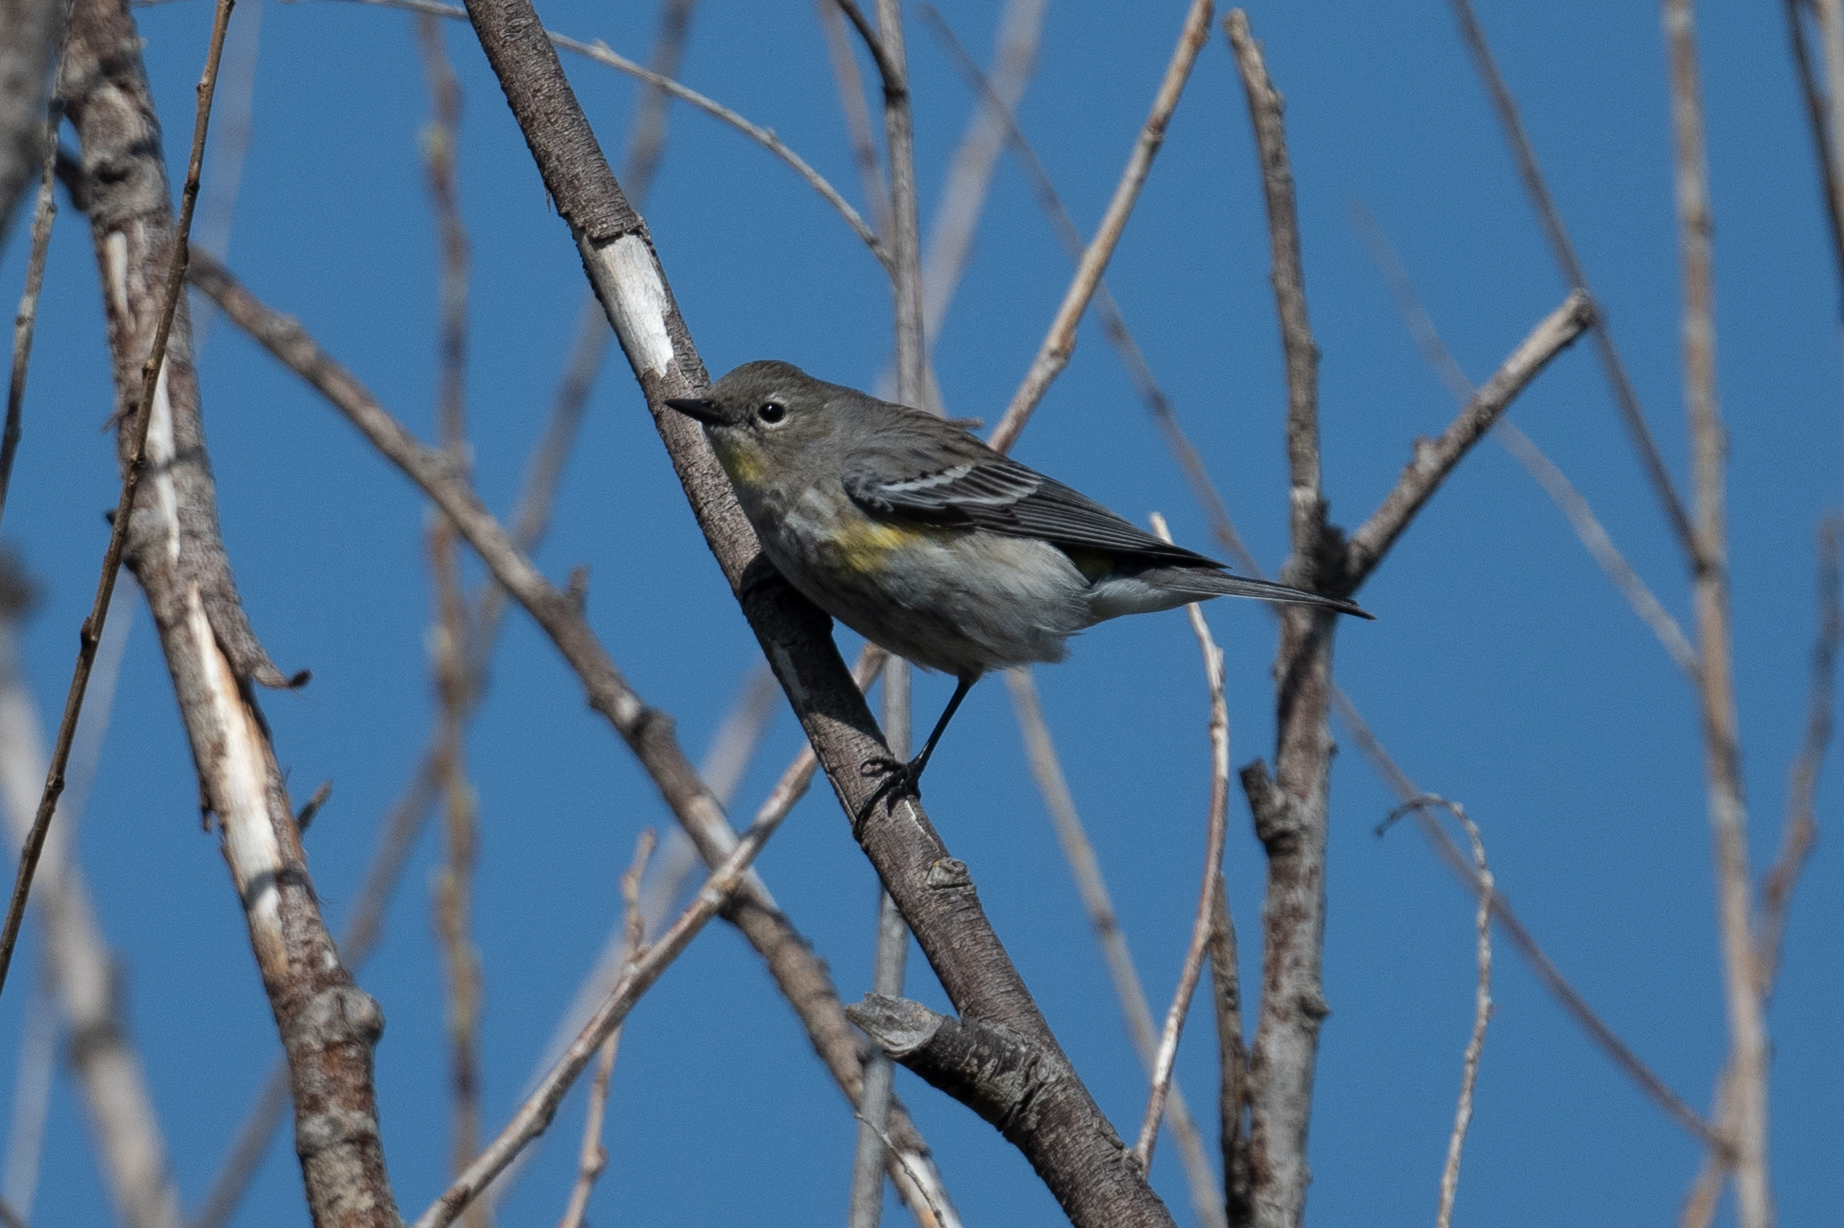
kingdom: Animalia
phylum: Chordata
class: Aves
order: Passeriformes
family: Parulidae
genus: Setophaga
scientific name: Setophaga coronata
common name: Myrtle warbler
